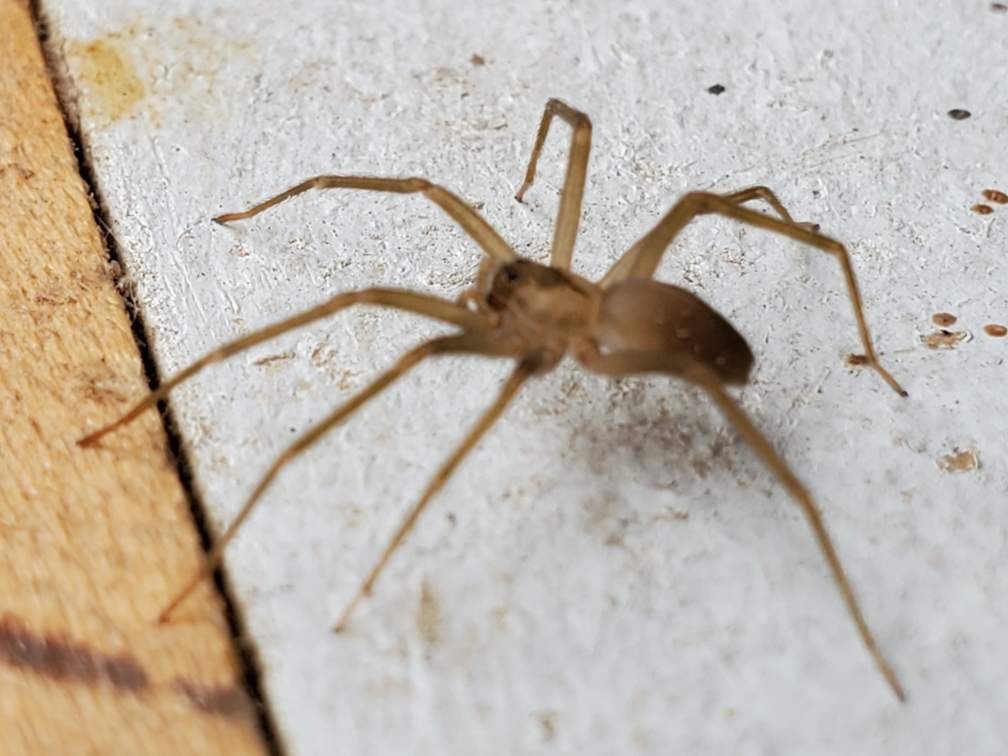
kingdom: Animalia
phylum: Arthropoda
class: Arachnida
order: Araneae
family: Sicariidae
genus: Loxosceles
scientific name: Loxosceles reclusa
